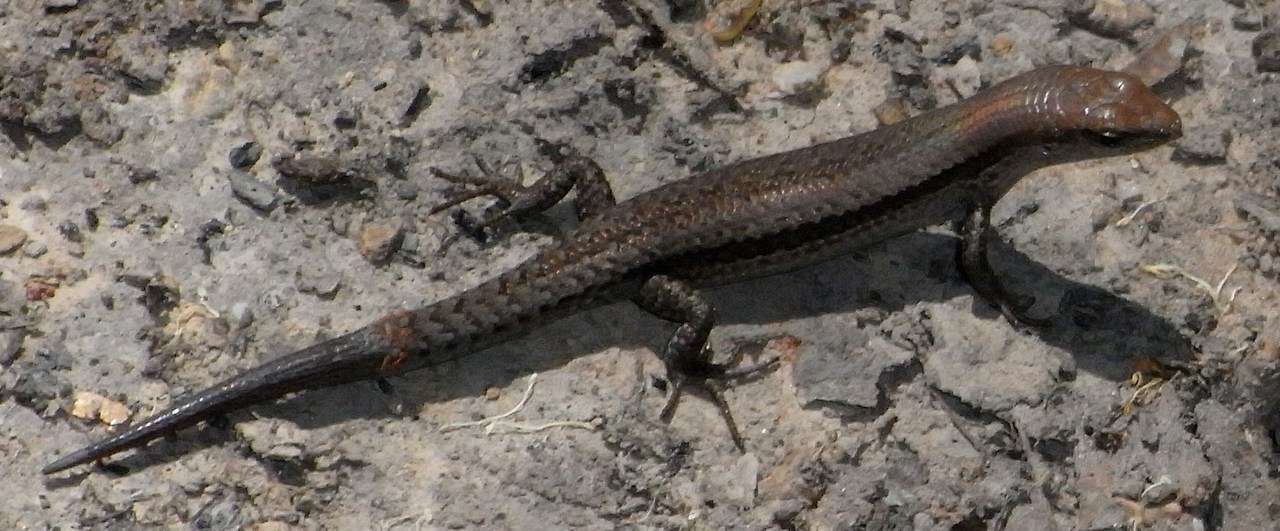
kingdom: Animalia
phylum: Chordata
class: Squamata
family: Scincidae
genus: Lampropholis
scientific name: Lampropholis guichenoti
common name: Garden skink
